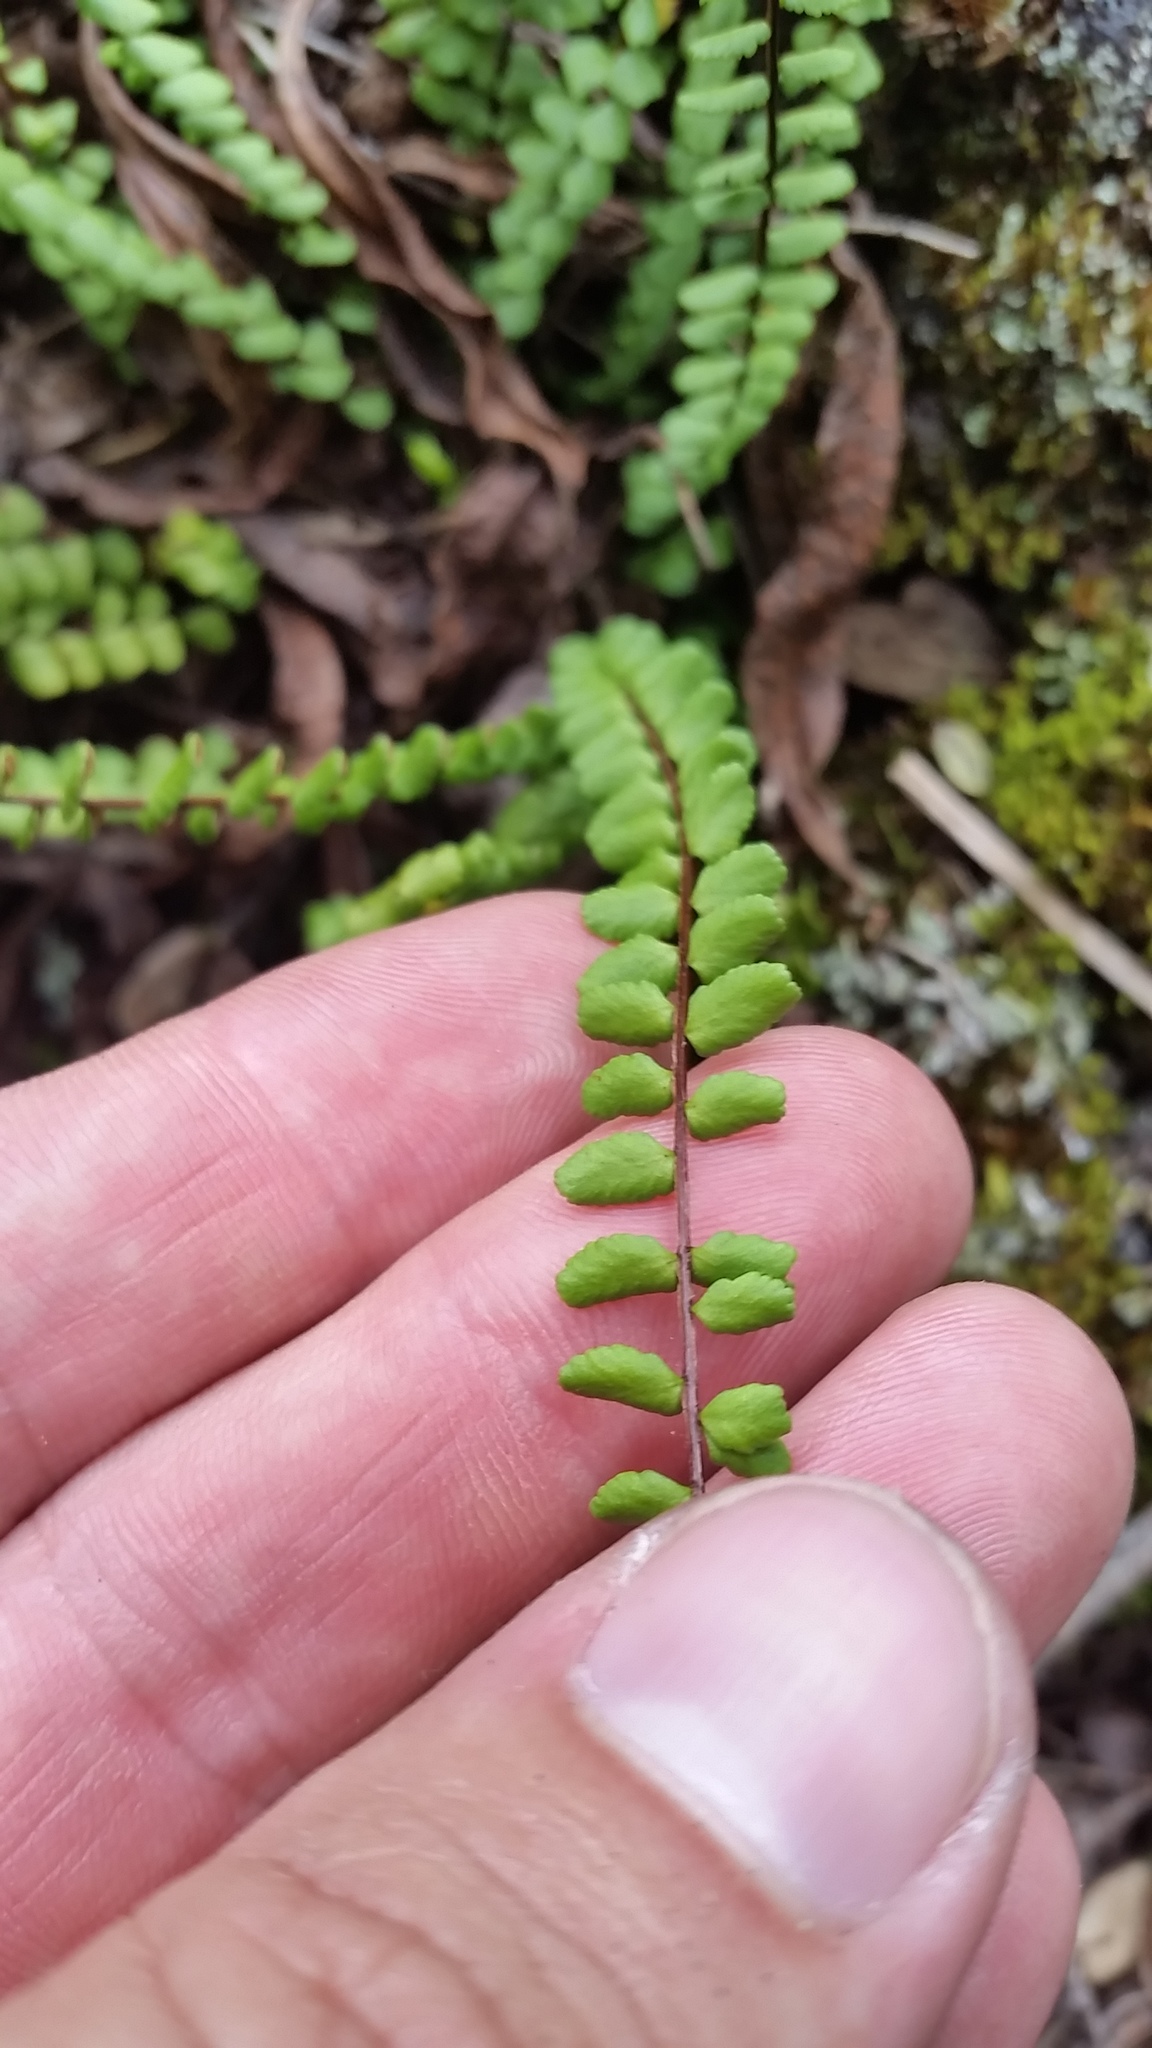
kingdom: Plantae
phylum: Tracheophyta
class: Polypodiopsida
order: Polypodiales
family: Aspleniaceae
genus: Asplenium
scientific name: Asplenium trichomanes
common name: Maidenhair spleenwort
